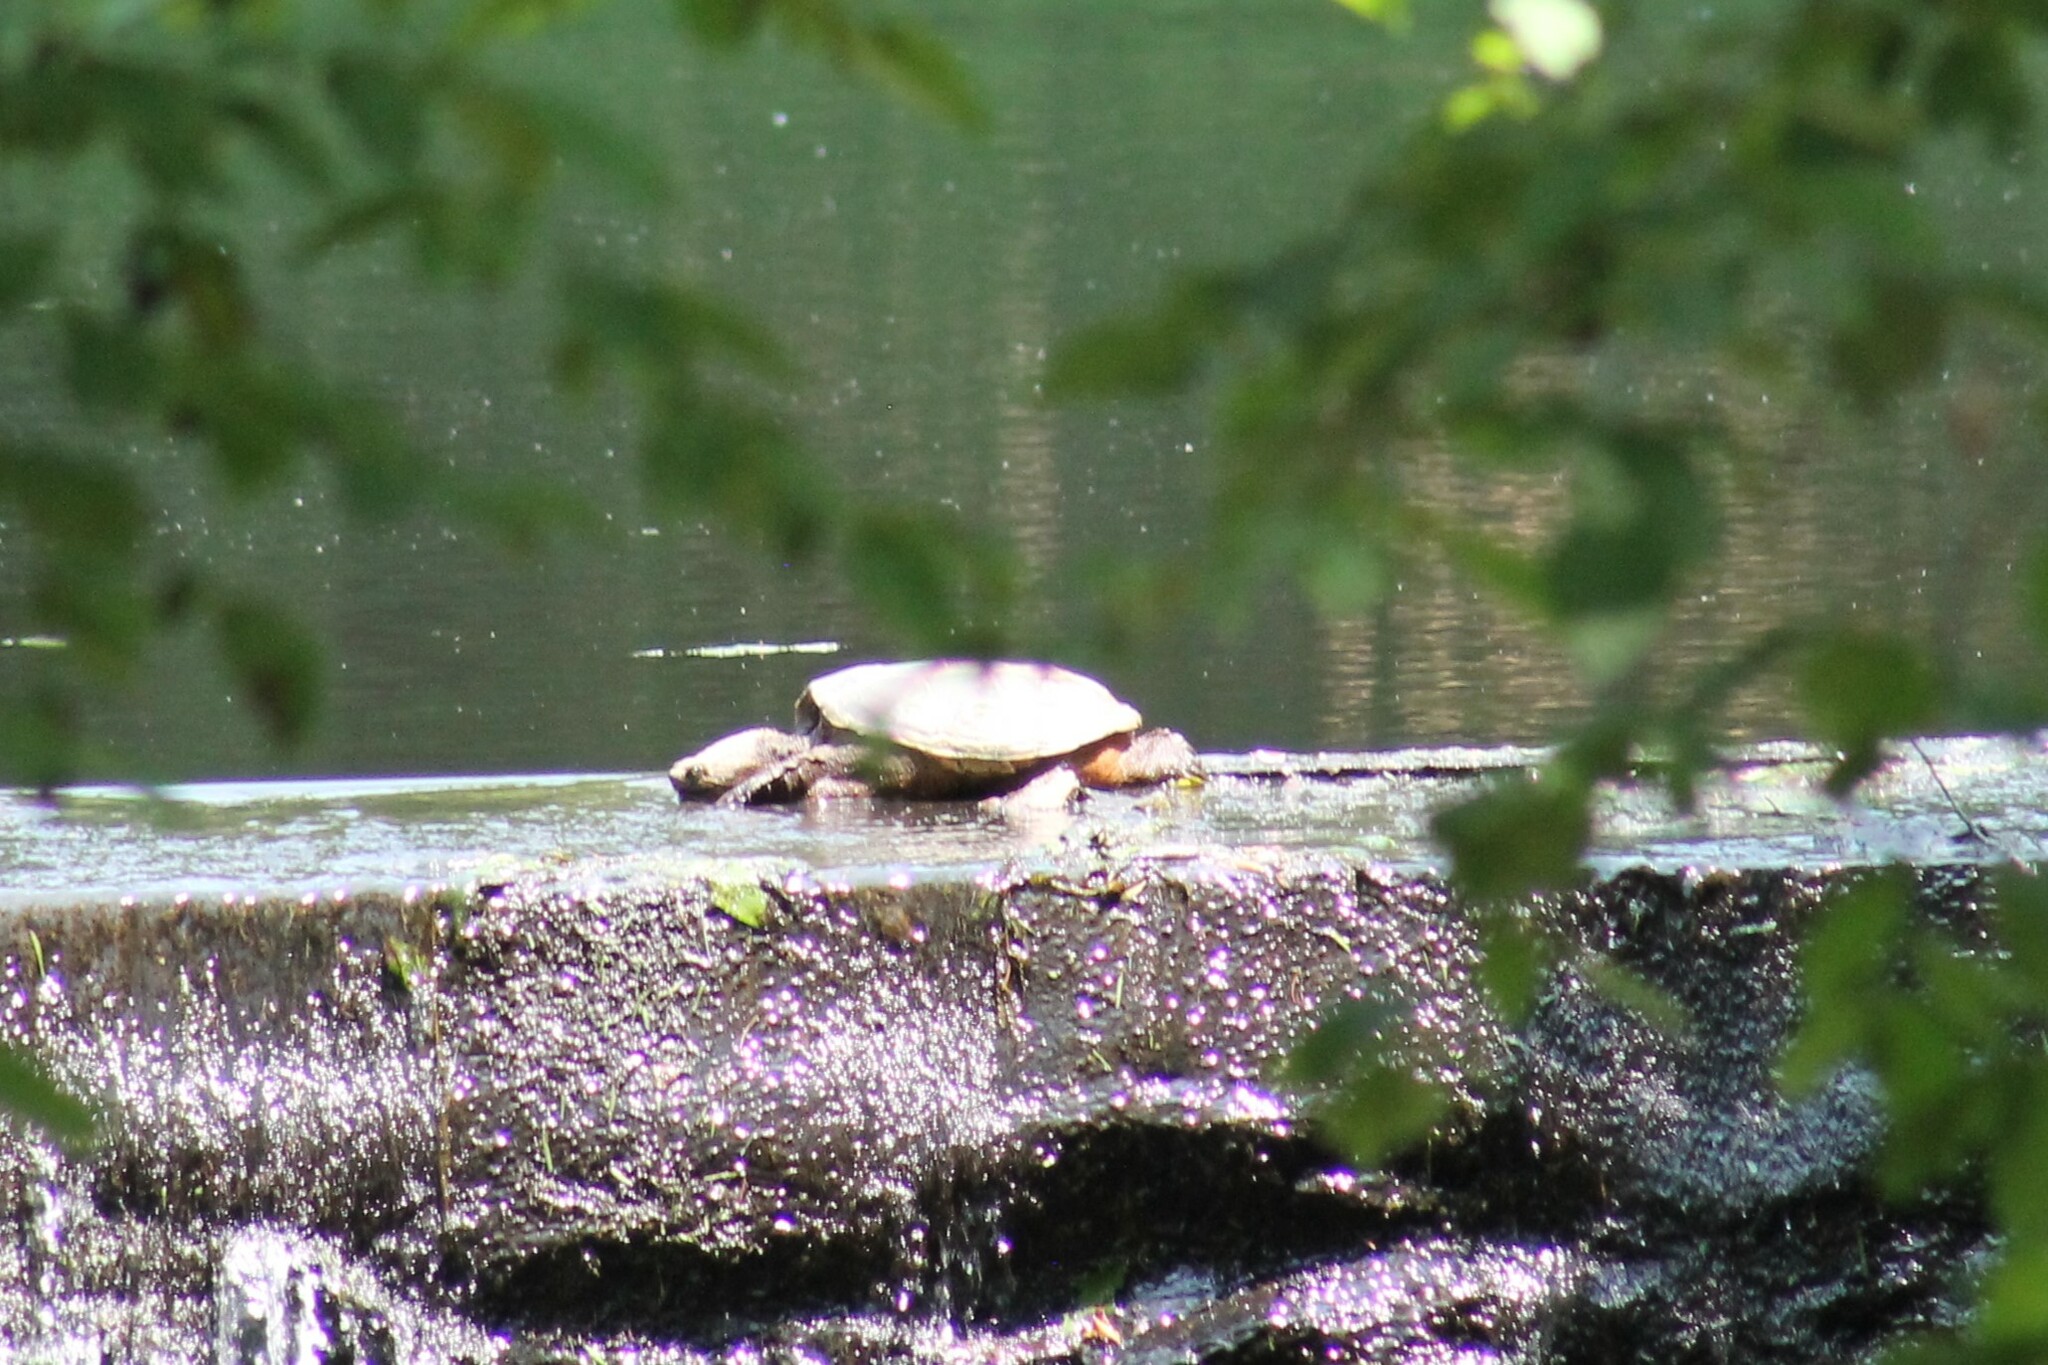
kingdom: Animalia
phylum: Chordata
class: Testudines
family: Chelydridae
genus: Chelydra
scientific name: Chelydra serpentina
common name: Common snapping turtle
